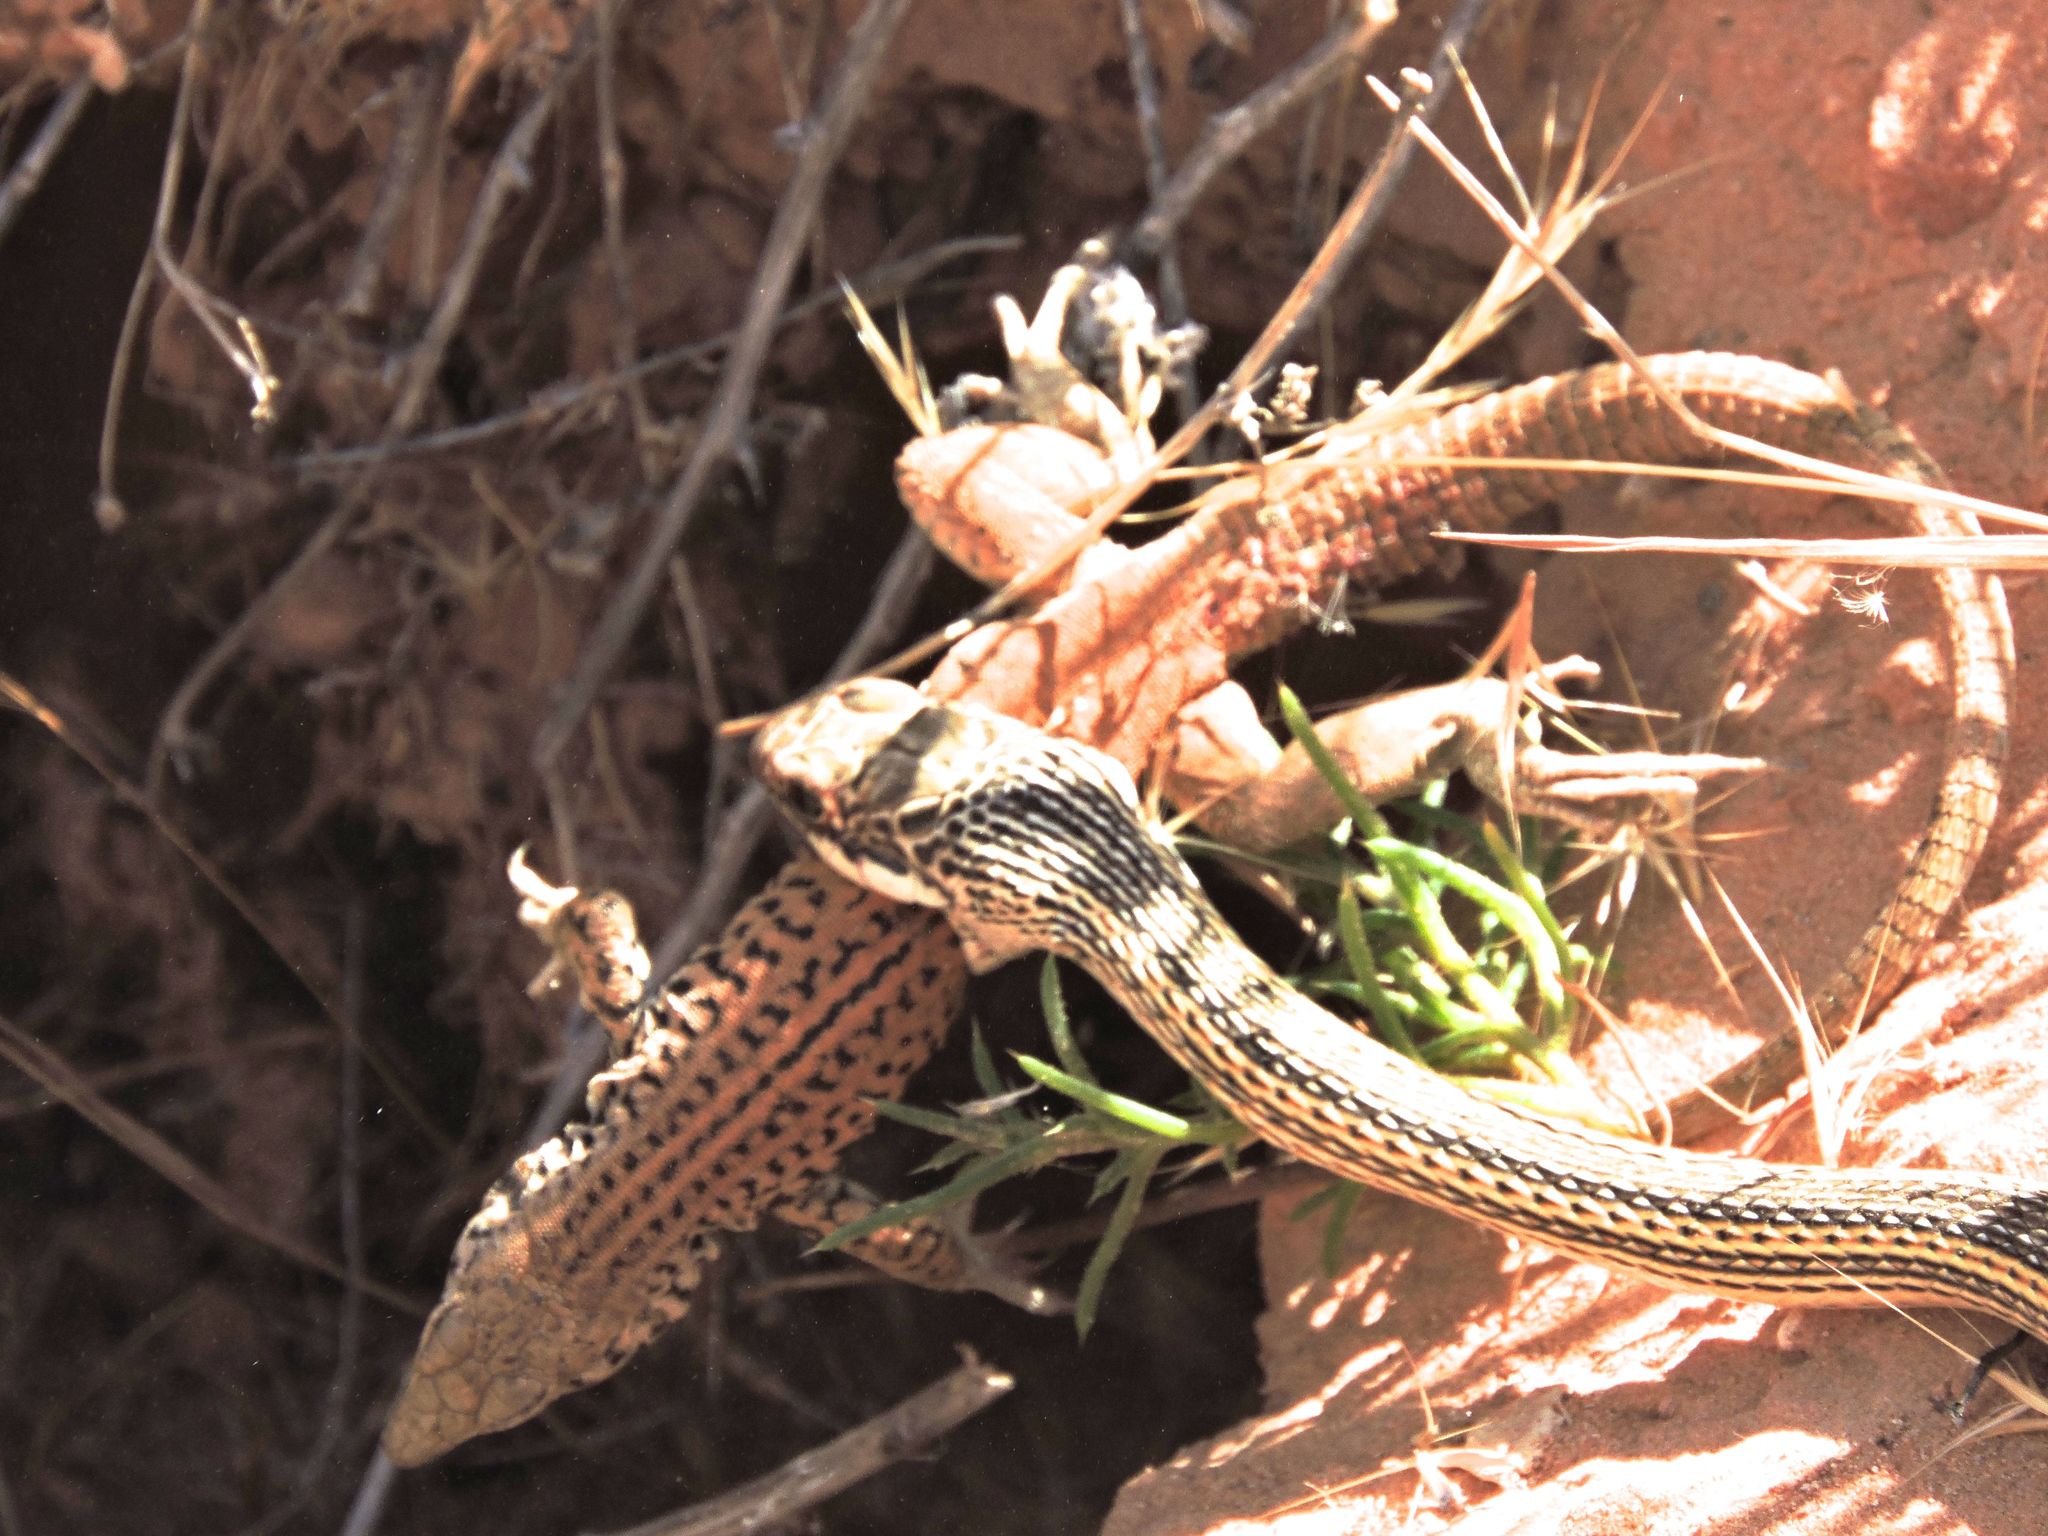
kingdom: Animalia
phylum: Chordata
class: Squamata
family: Teiidae
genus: Aspidoscelis
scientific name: Aspidoscelis tigris
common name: Tiger whiptail
